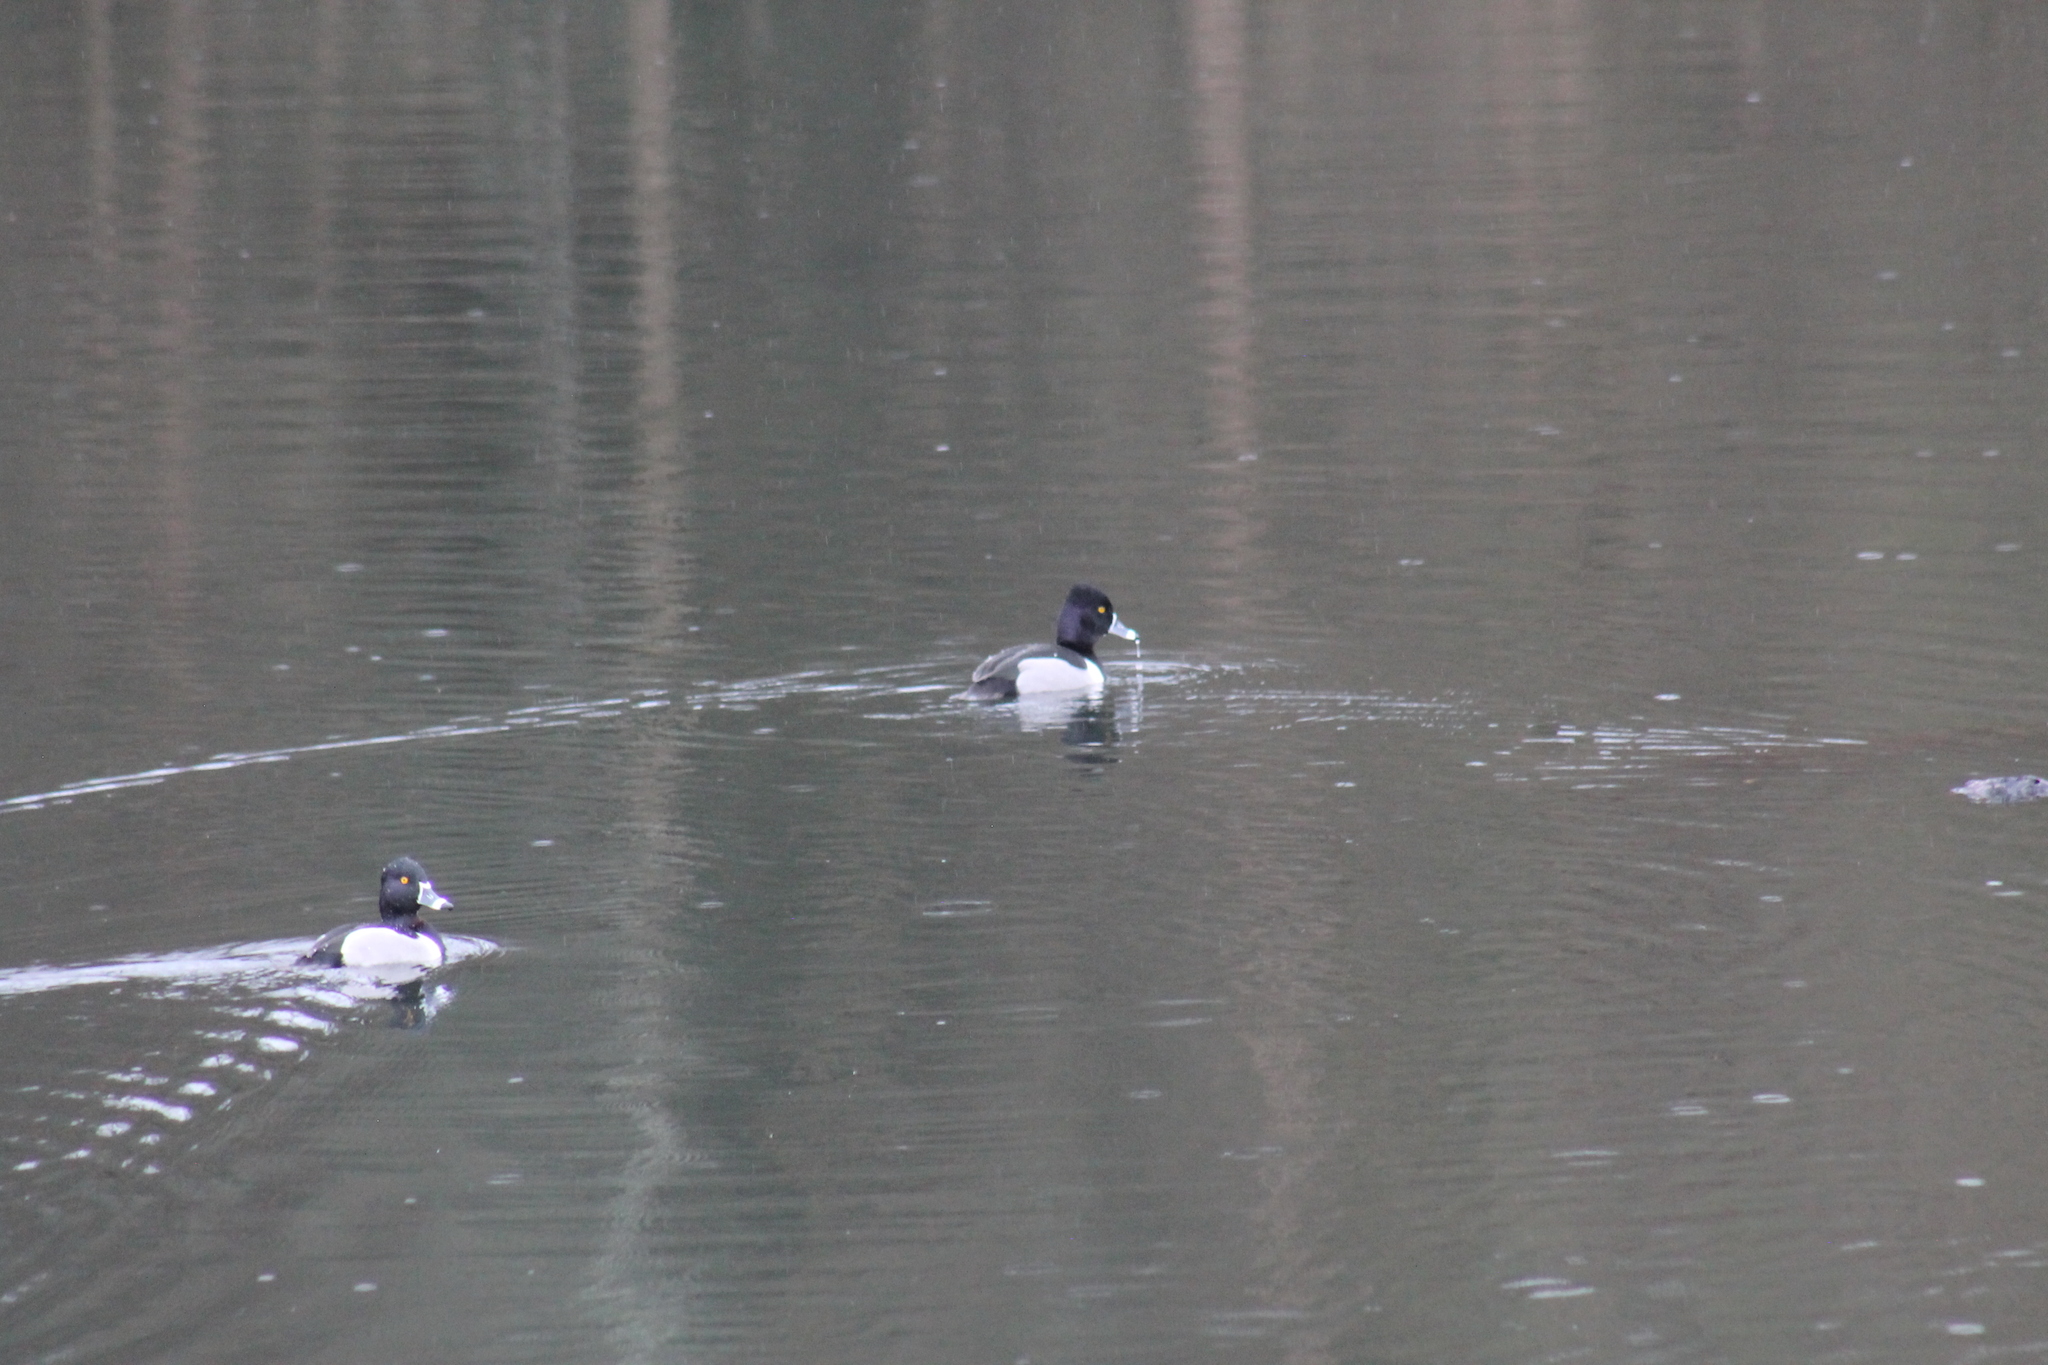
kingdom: Animalia
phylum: Chordata
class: Aves
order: Anseriformes
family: Anatidae
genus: Aythya
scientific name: Aythya collaris
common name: Ring-necked duck
